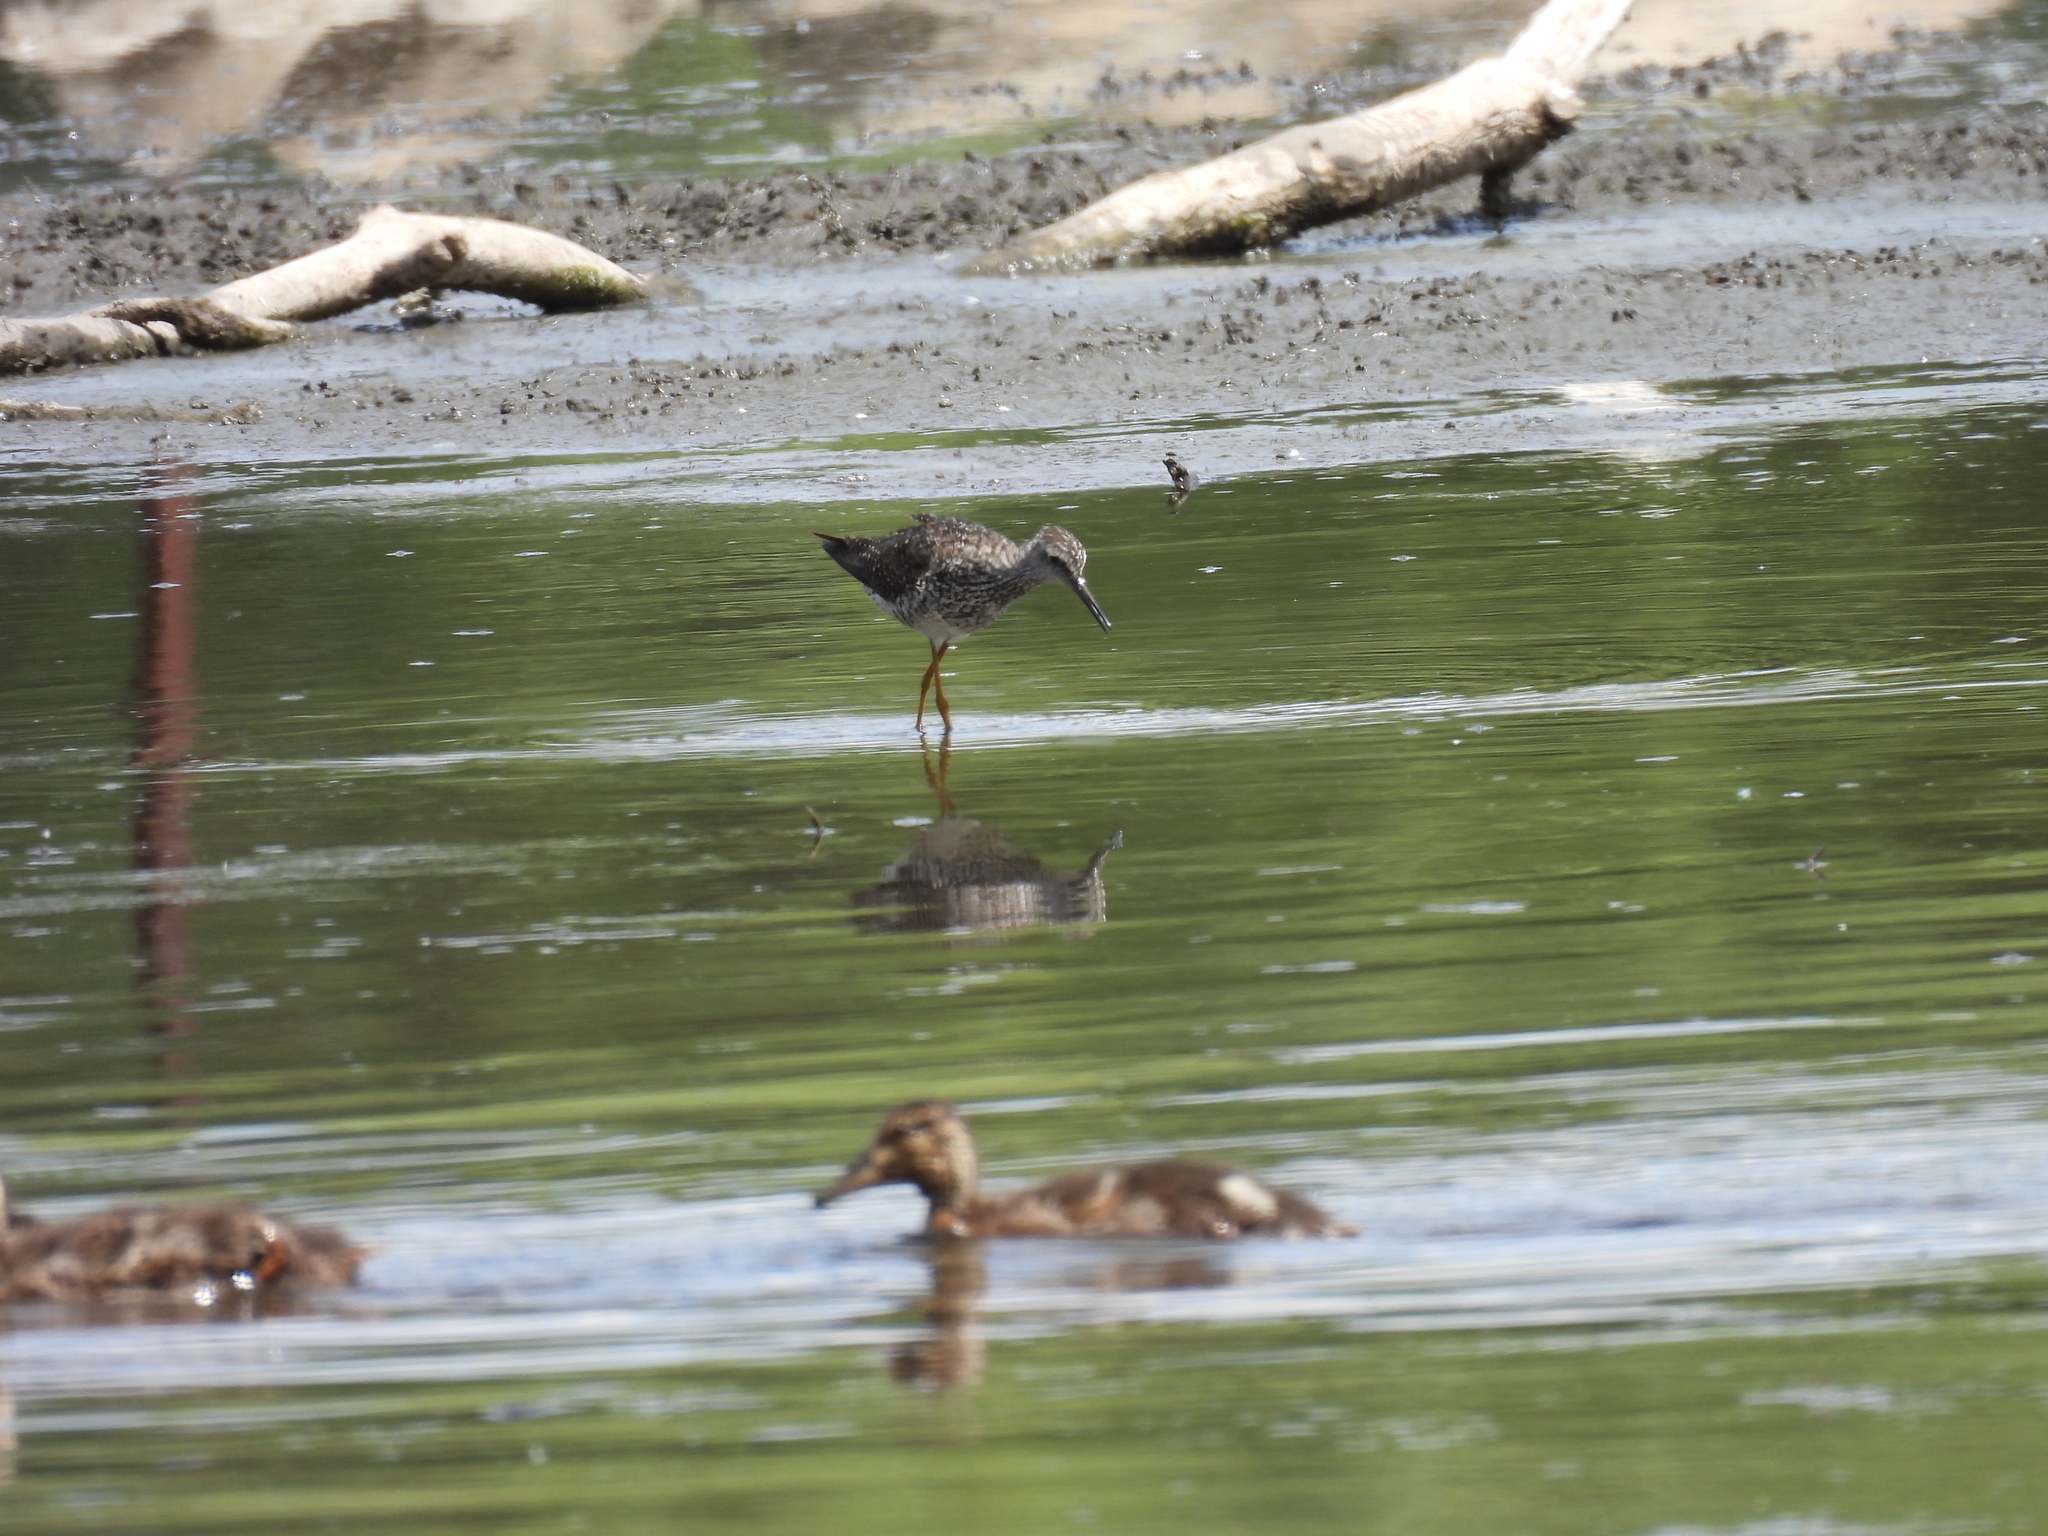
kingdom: Animalia
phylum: Chordata
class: Aves
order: Charadriiformes
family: Scolopacidae
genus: Tringa
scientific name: Tringa flavipes
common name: Lesser yellowlegs
